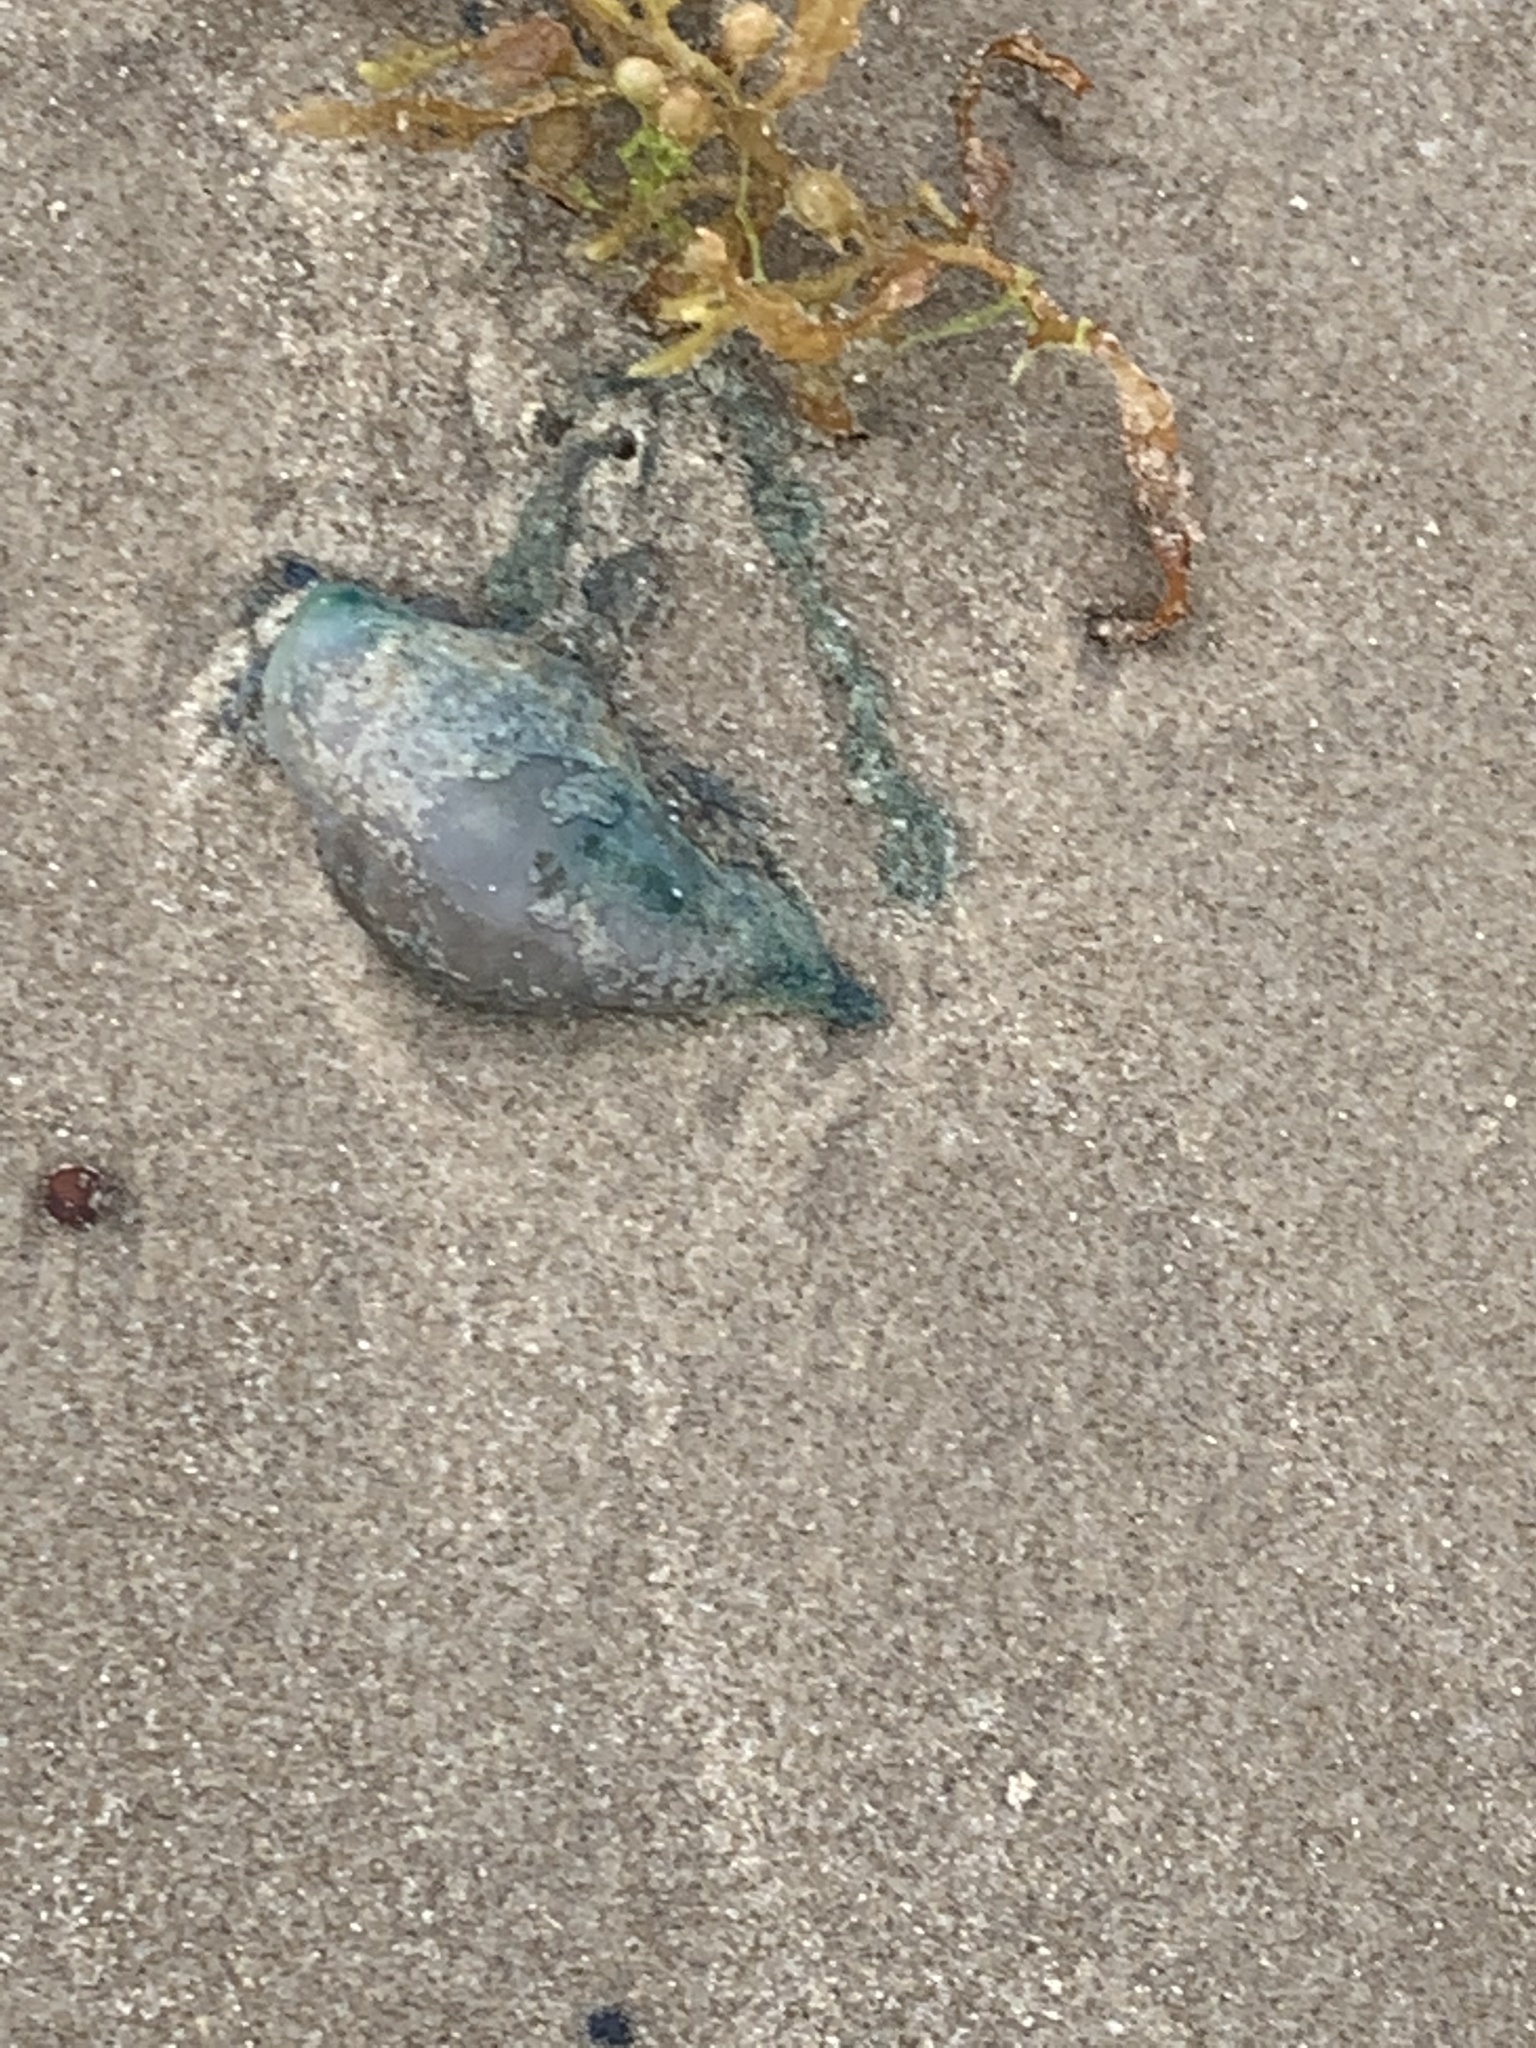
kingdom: Animalia
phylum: Cnidaria
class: Hydrozoa
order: Siphonophorae
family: Physaliidae
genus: Physalia
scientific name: Physalia physalis
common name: Portuguese man-of-war
